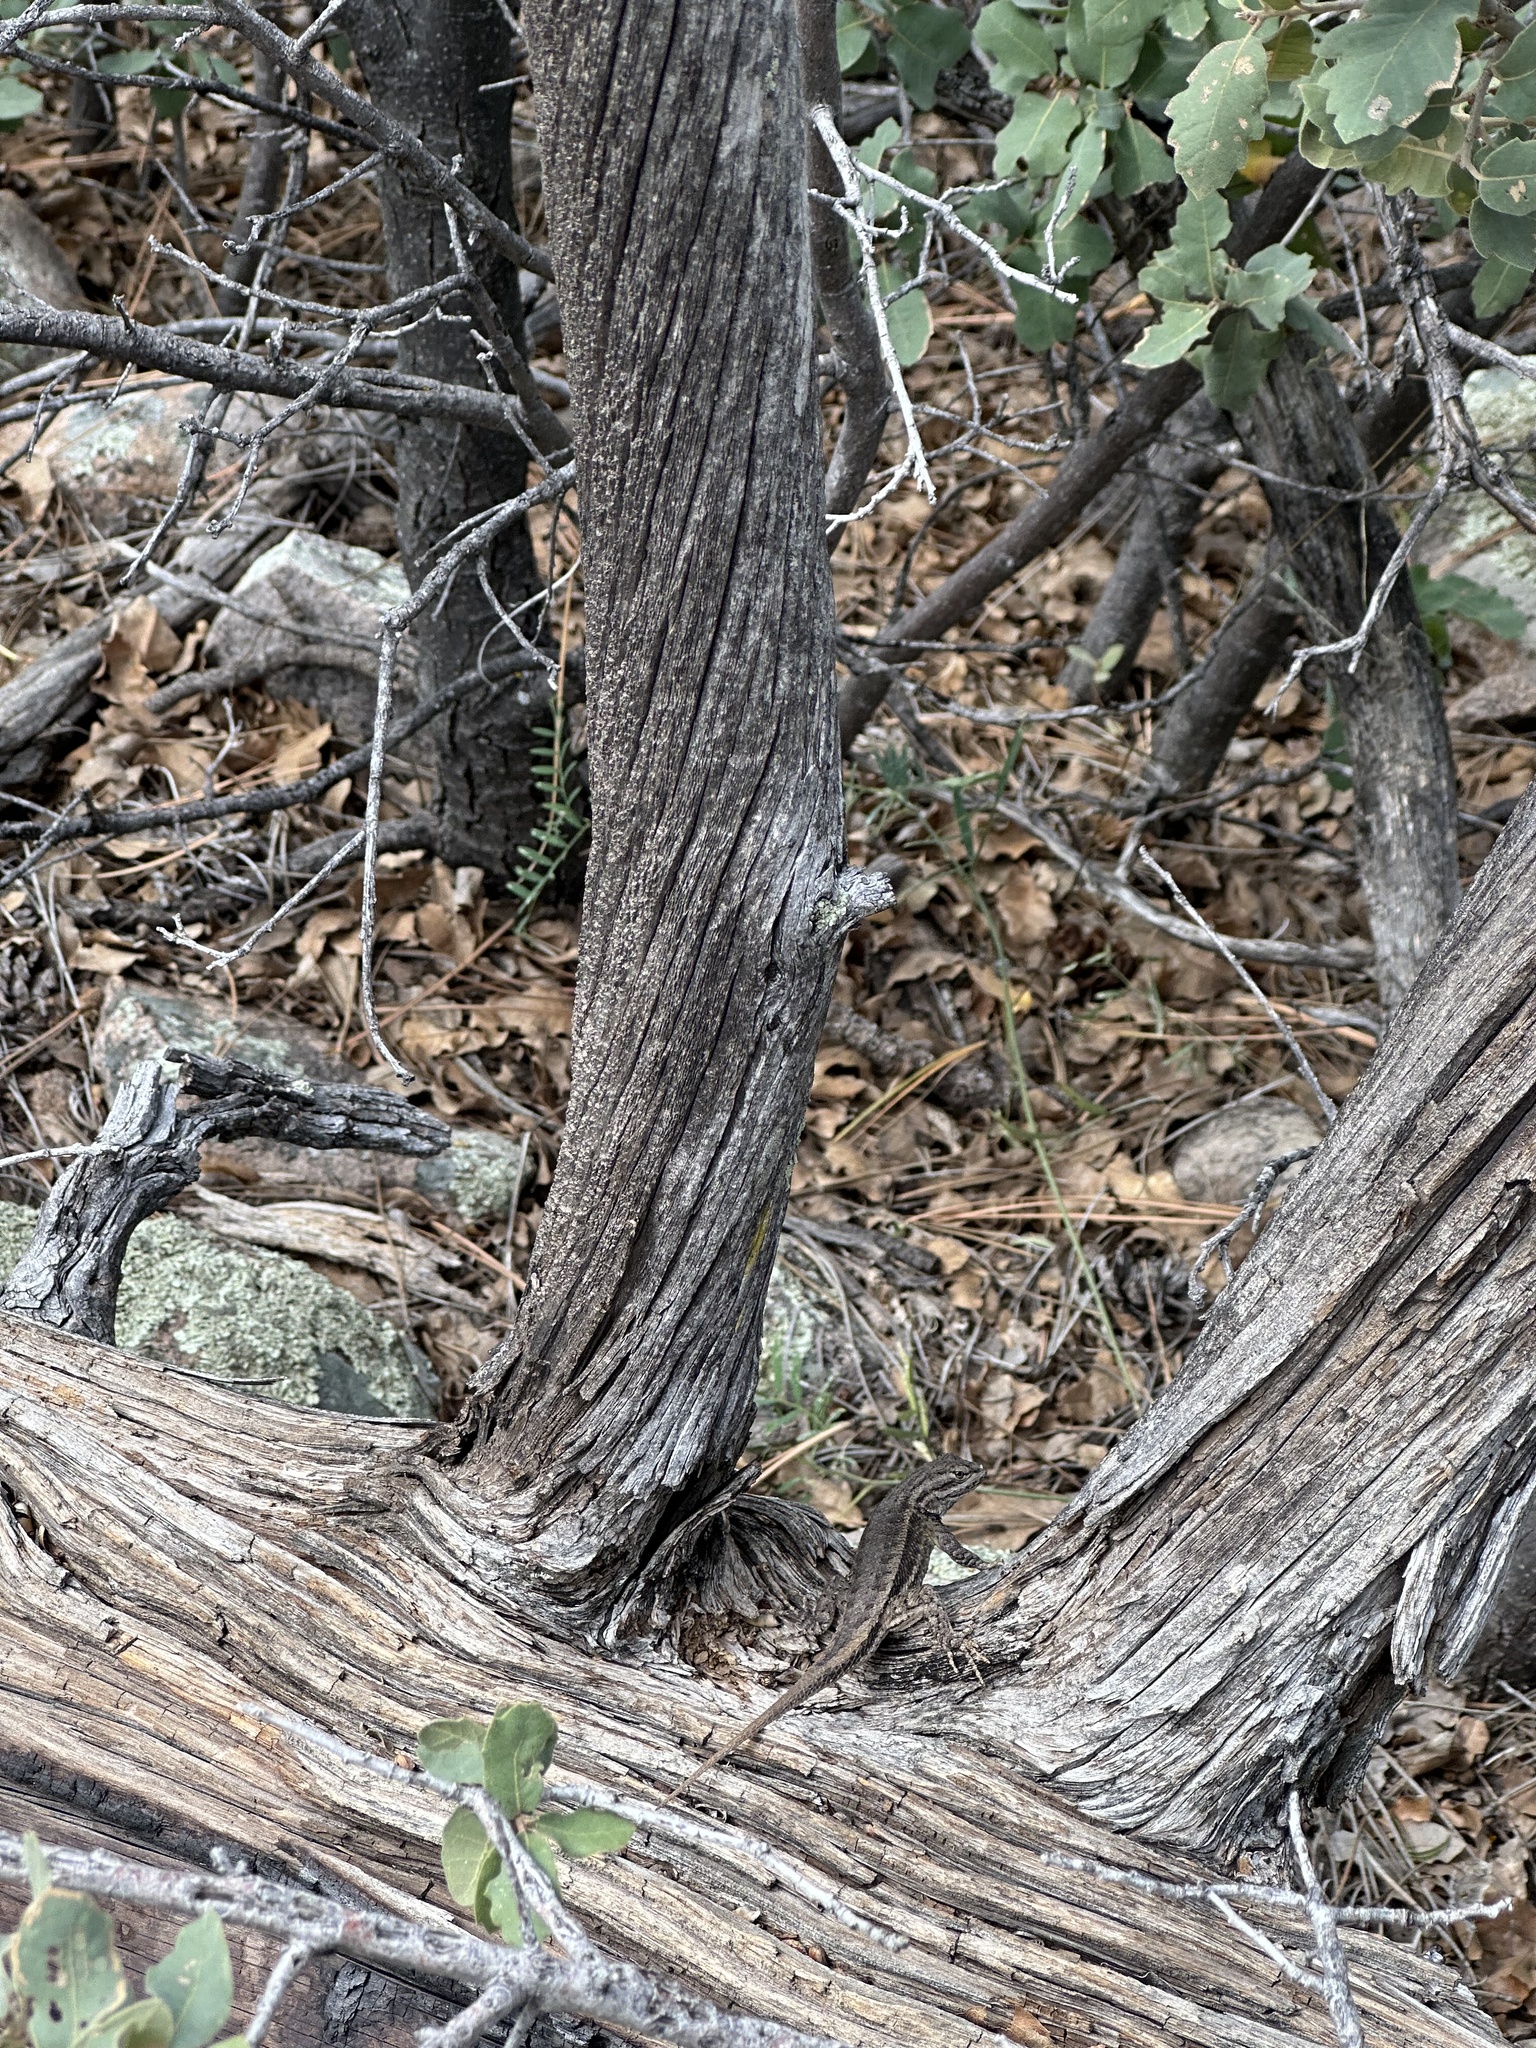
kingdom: Animalia
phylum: Chordata
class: Squamata
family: Phrynosomatidae
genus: Sceloporus
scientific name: Sceloporus cowlesi
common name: White sands prairie lizard
